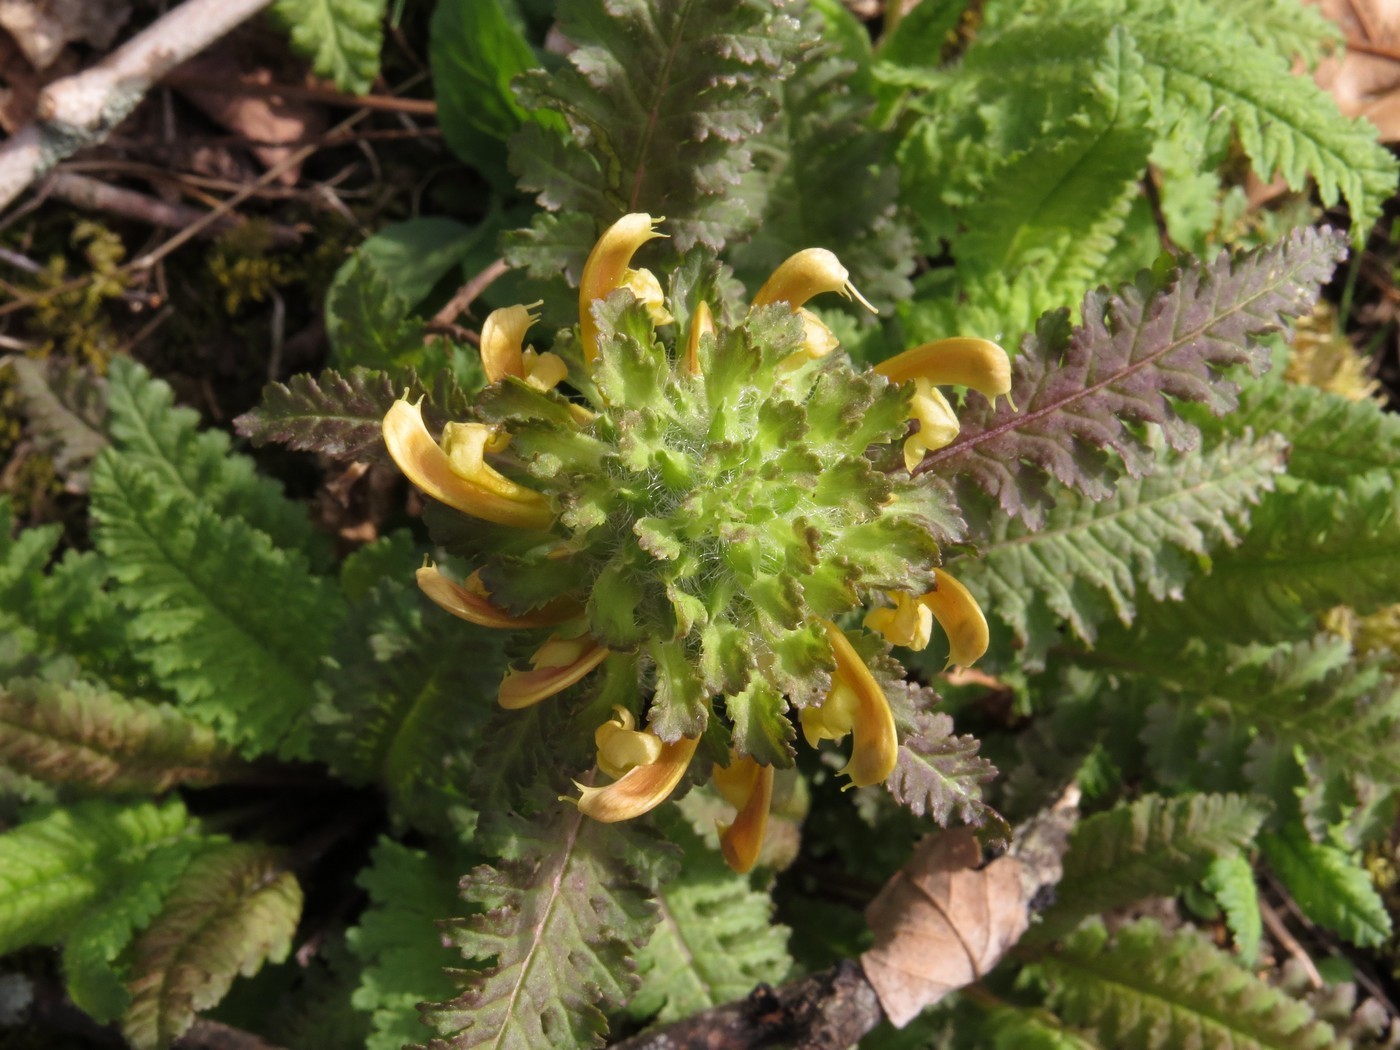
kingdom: Plantae
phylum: Tracheophyta
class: Magnoliopsida
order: Lamiales
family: Orobanchaceae
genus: Pedicularis
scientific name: Pedicularis canadensis
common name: Early lousewort
